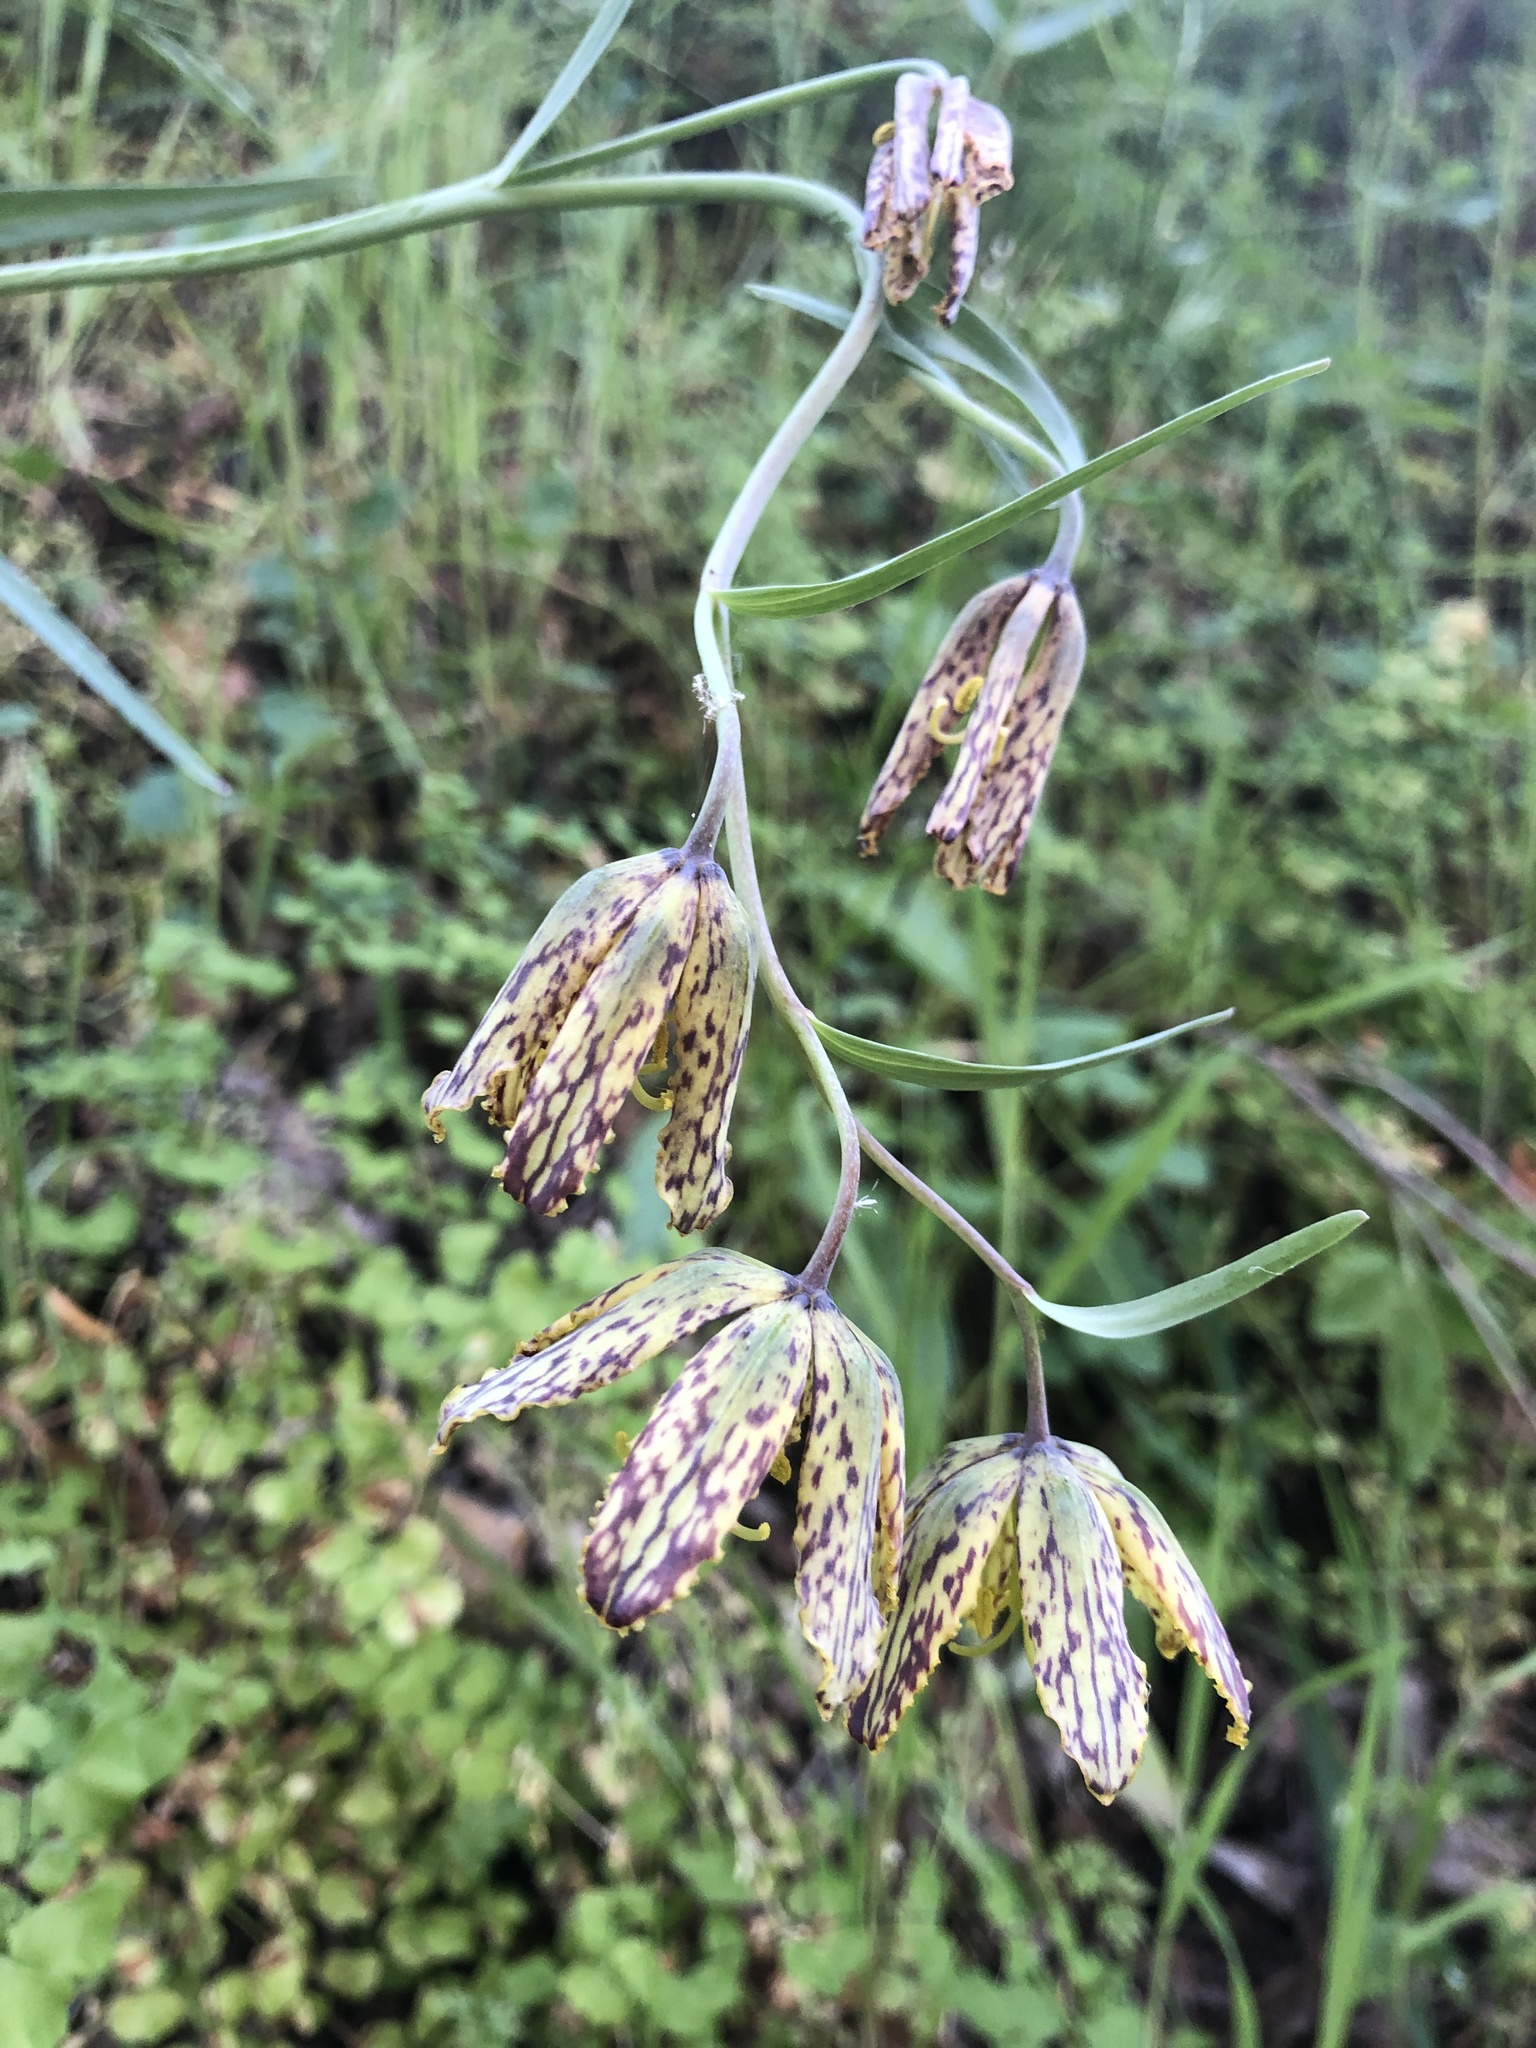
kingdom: Plantae
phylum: Tracheophyta
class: Liliopsida
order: Liliales
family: Liliaceae
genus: Fritillaria
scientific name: Fritillaria affinis
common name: Ojai fritillary
